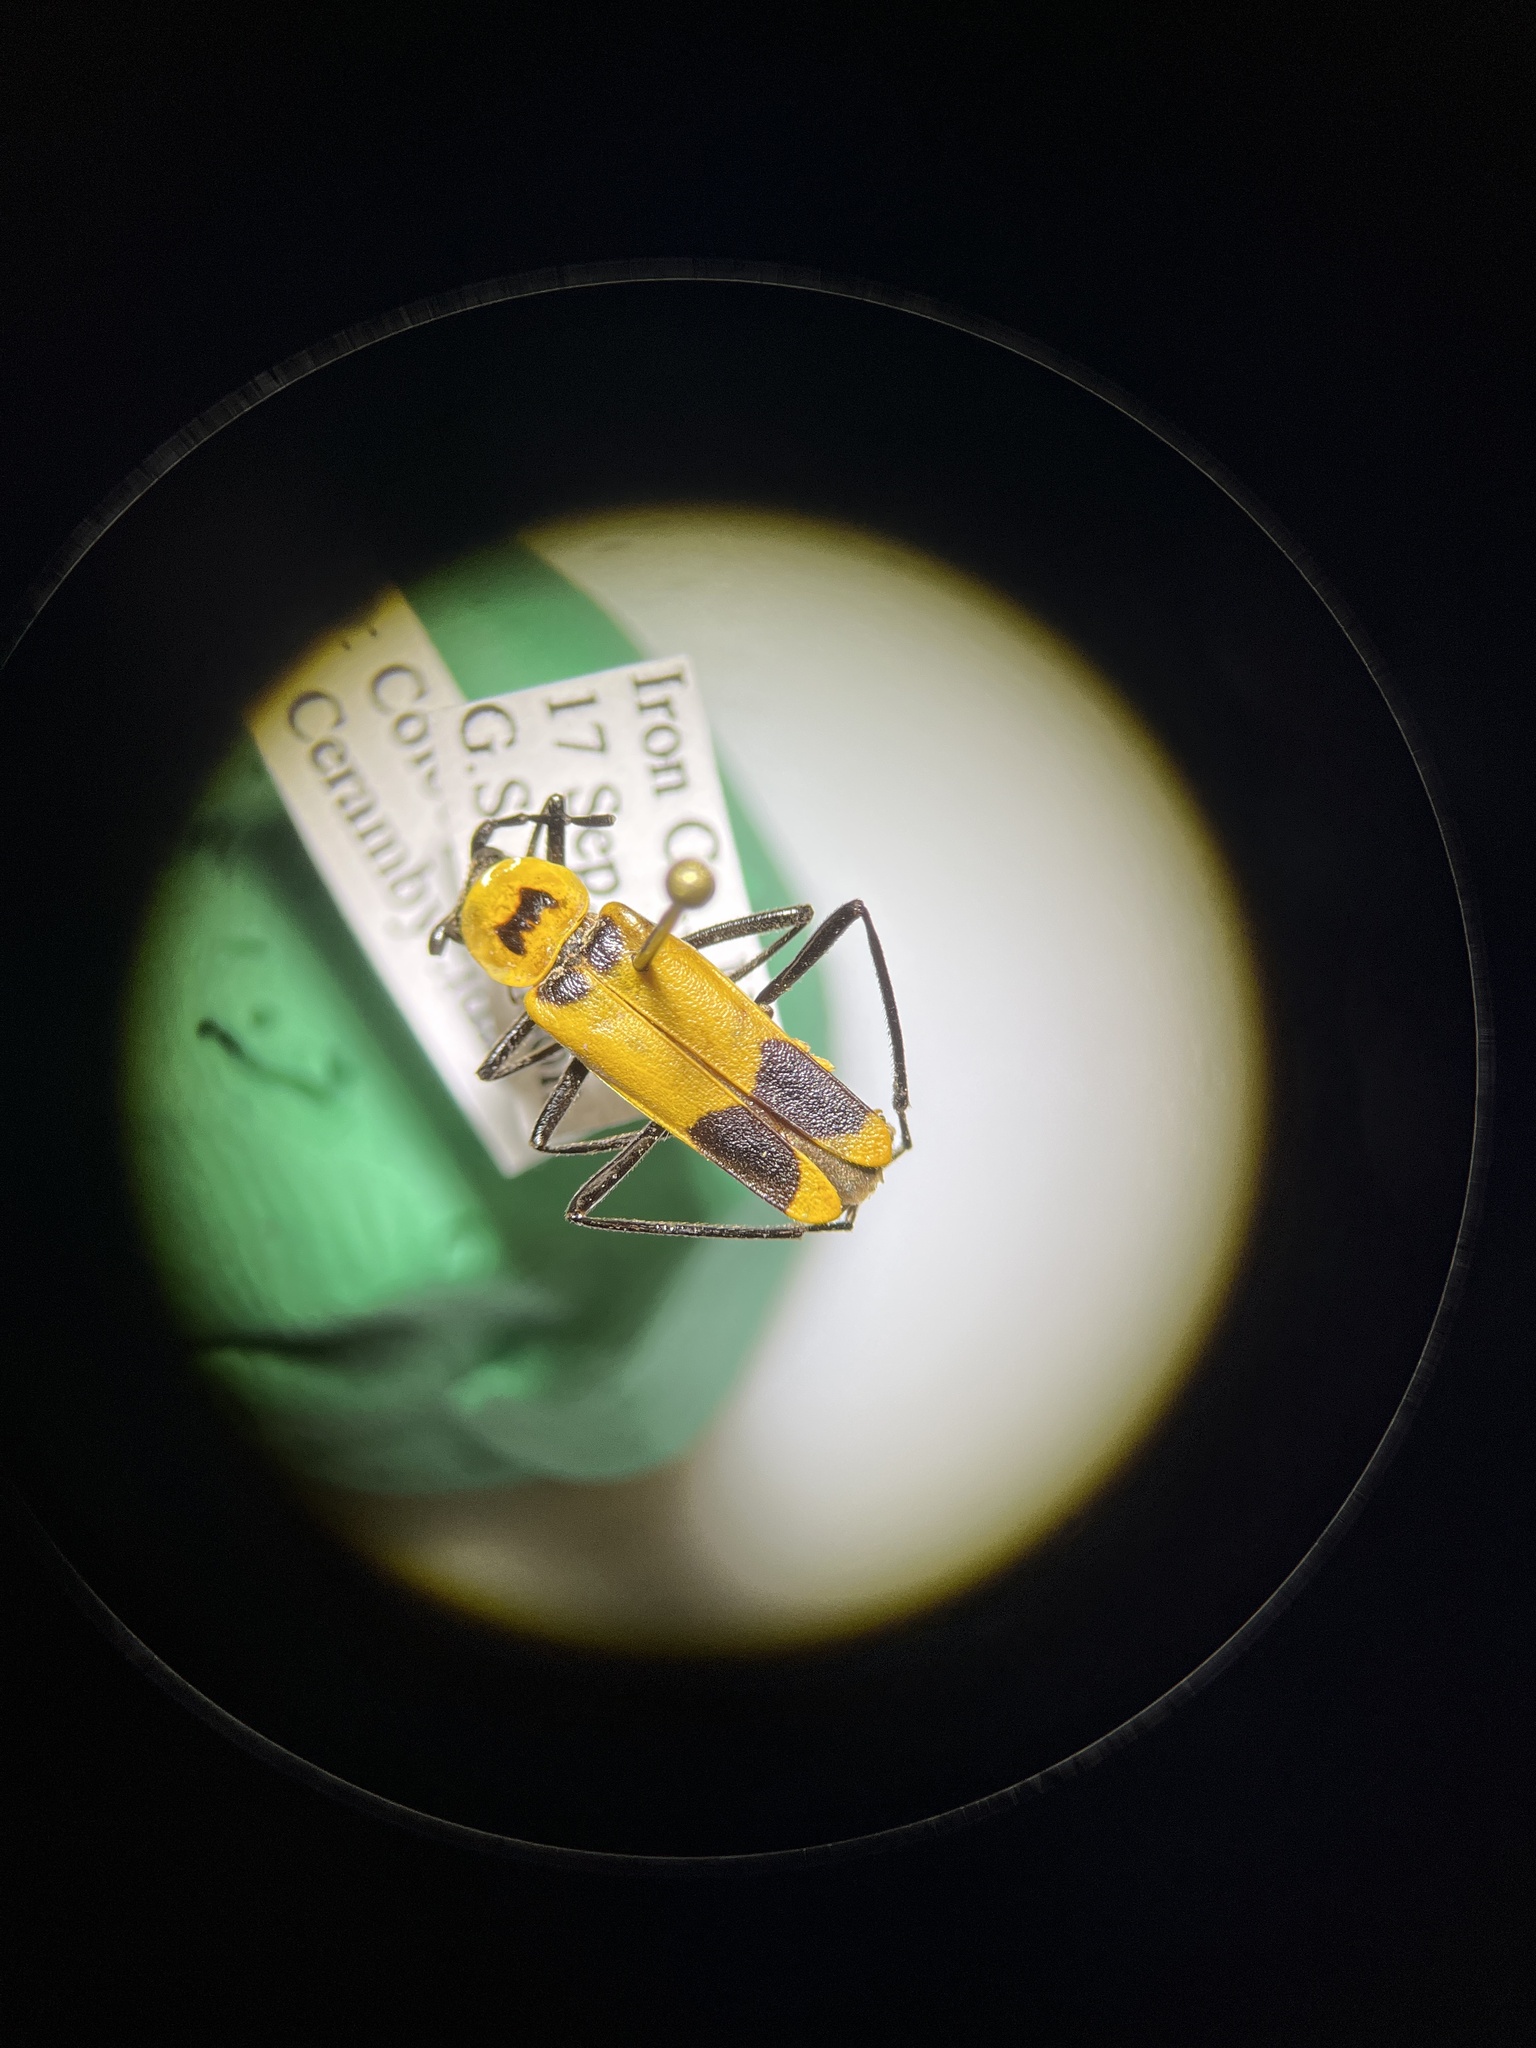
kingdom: Animalia
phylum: Arthropoda
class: Insecta
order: Coleoptera
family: Cantharidae
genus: Chauliognathus
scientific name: Chauliognathus fasciatus
